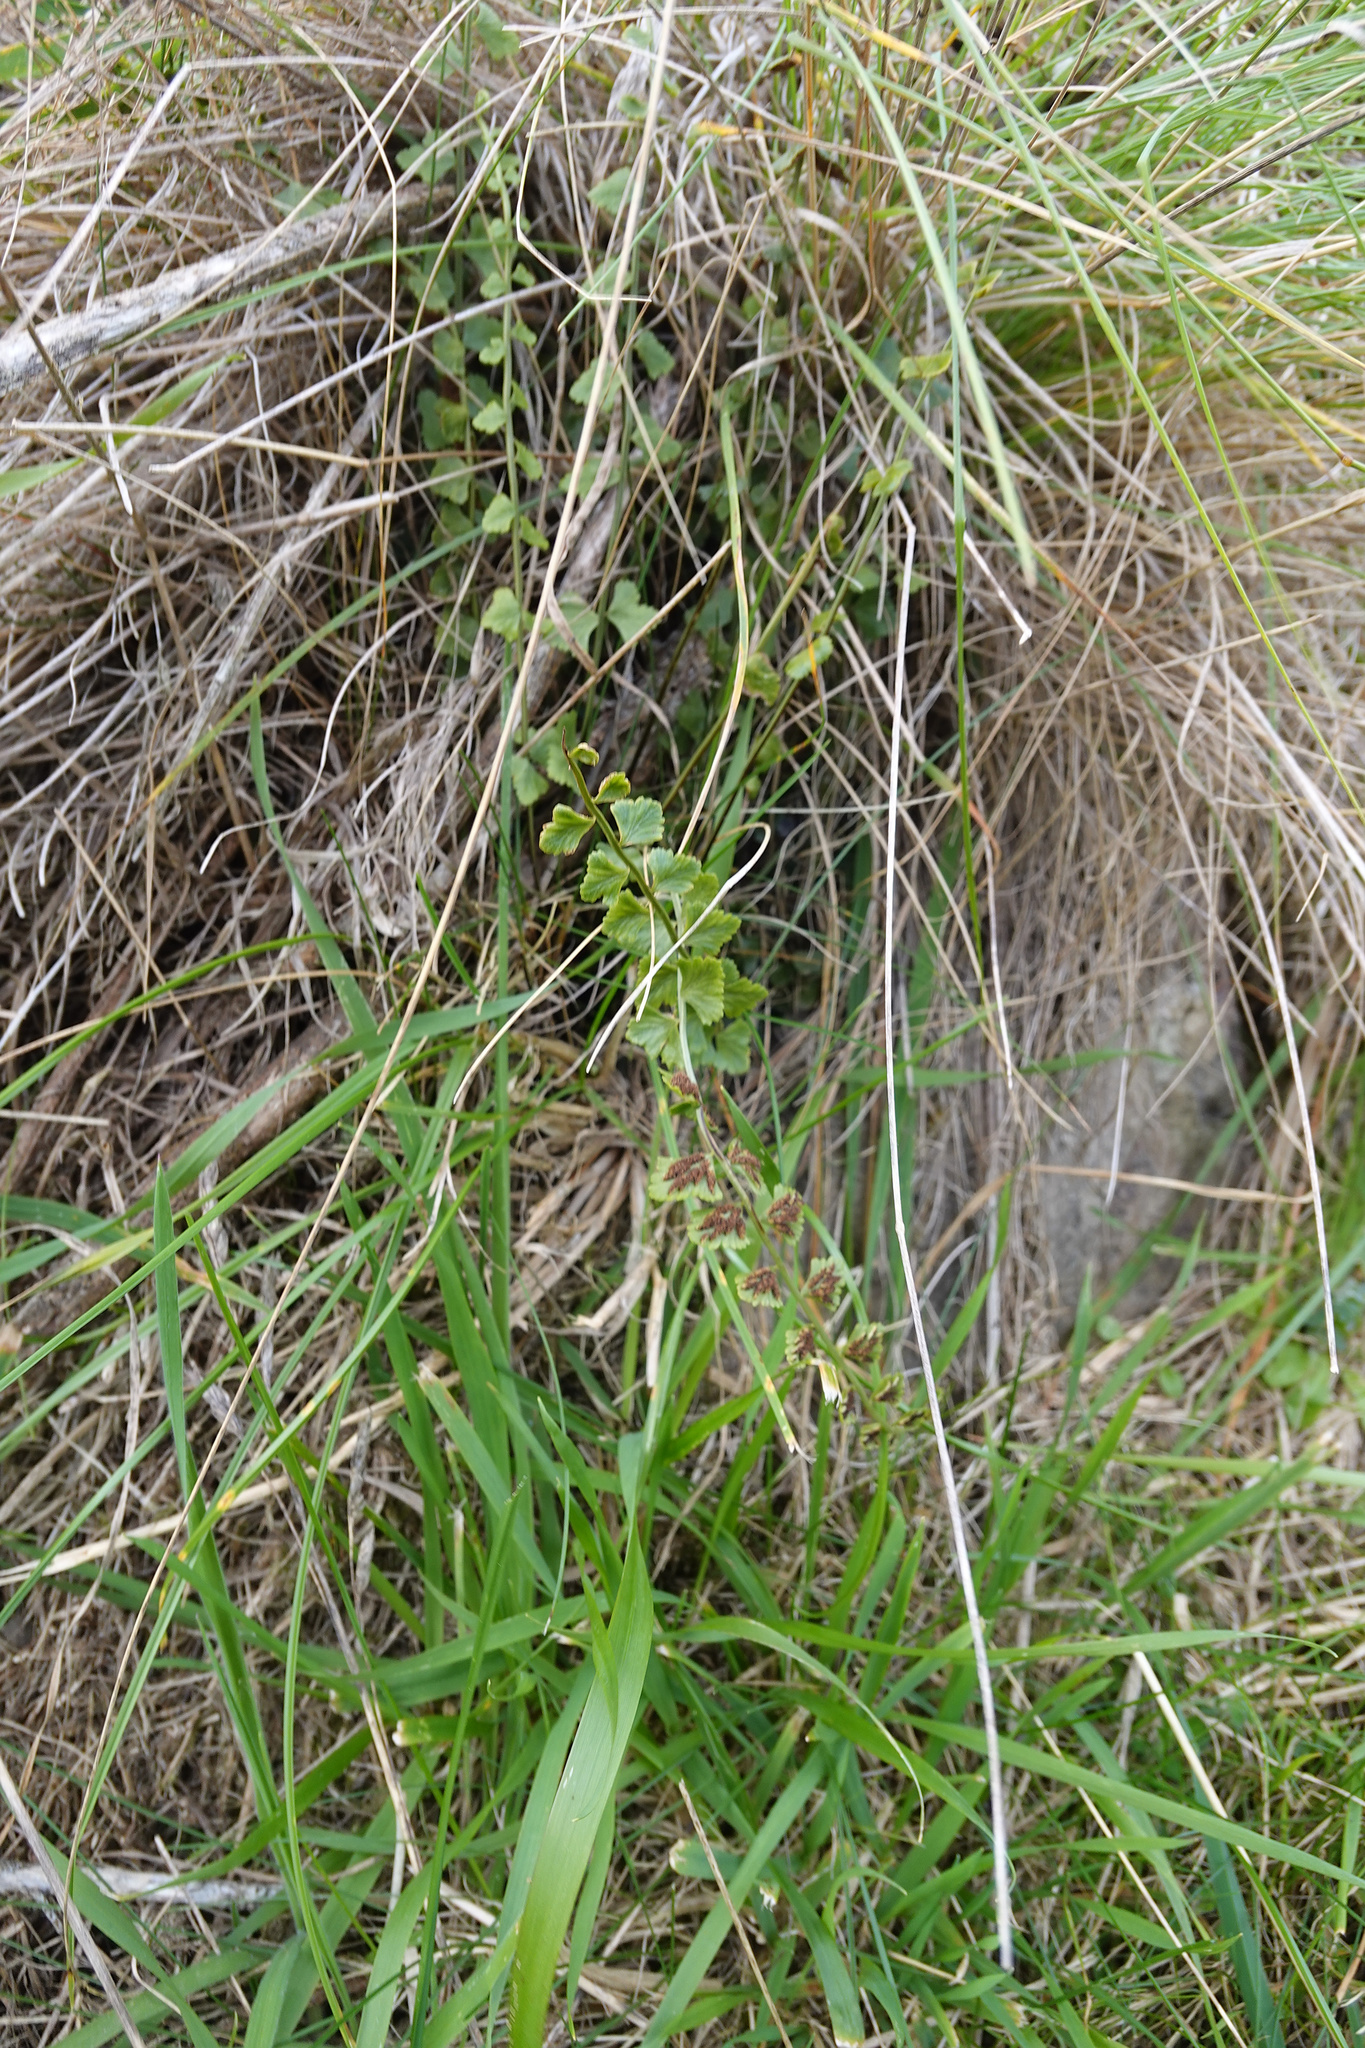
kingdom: Plantae
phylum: Tracheophyta
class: Polypodiopsida
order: Polypodiales
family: Aspleniaceae
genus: Asplenium
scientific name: Asplenium flabellifolium
